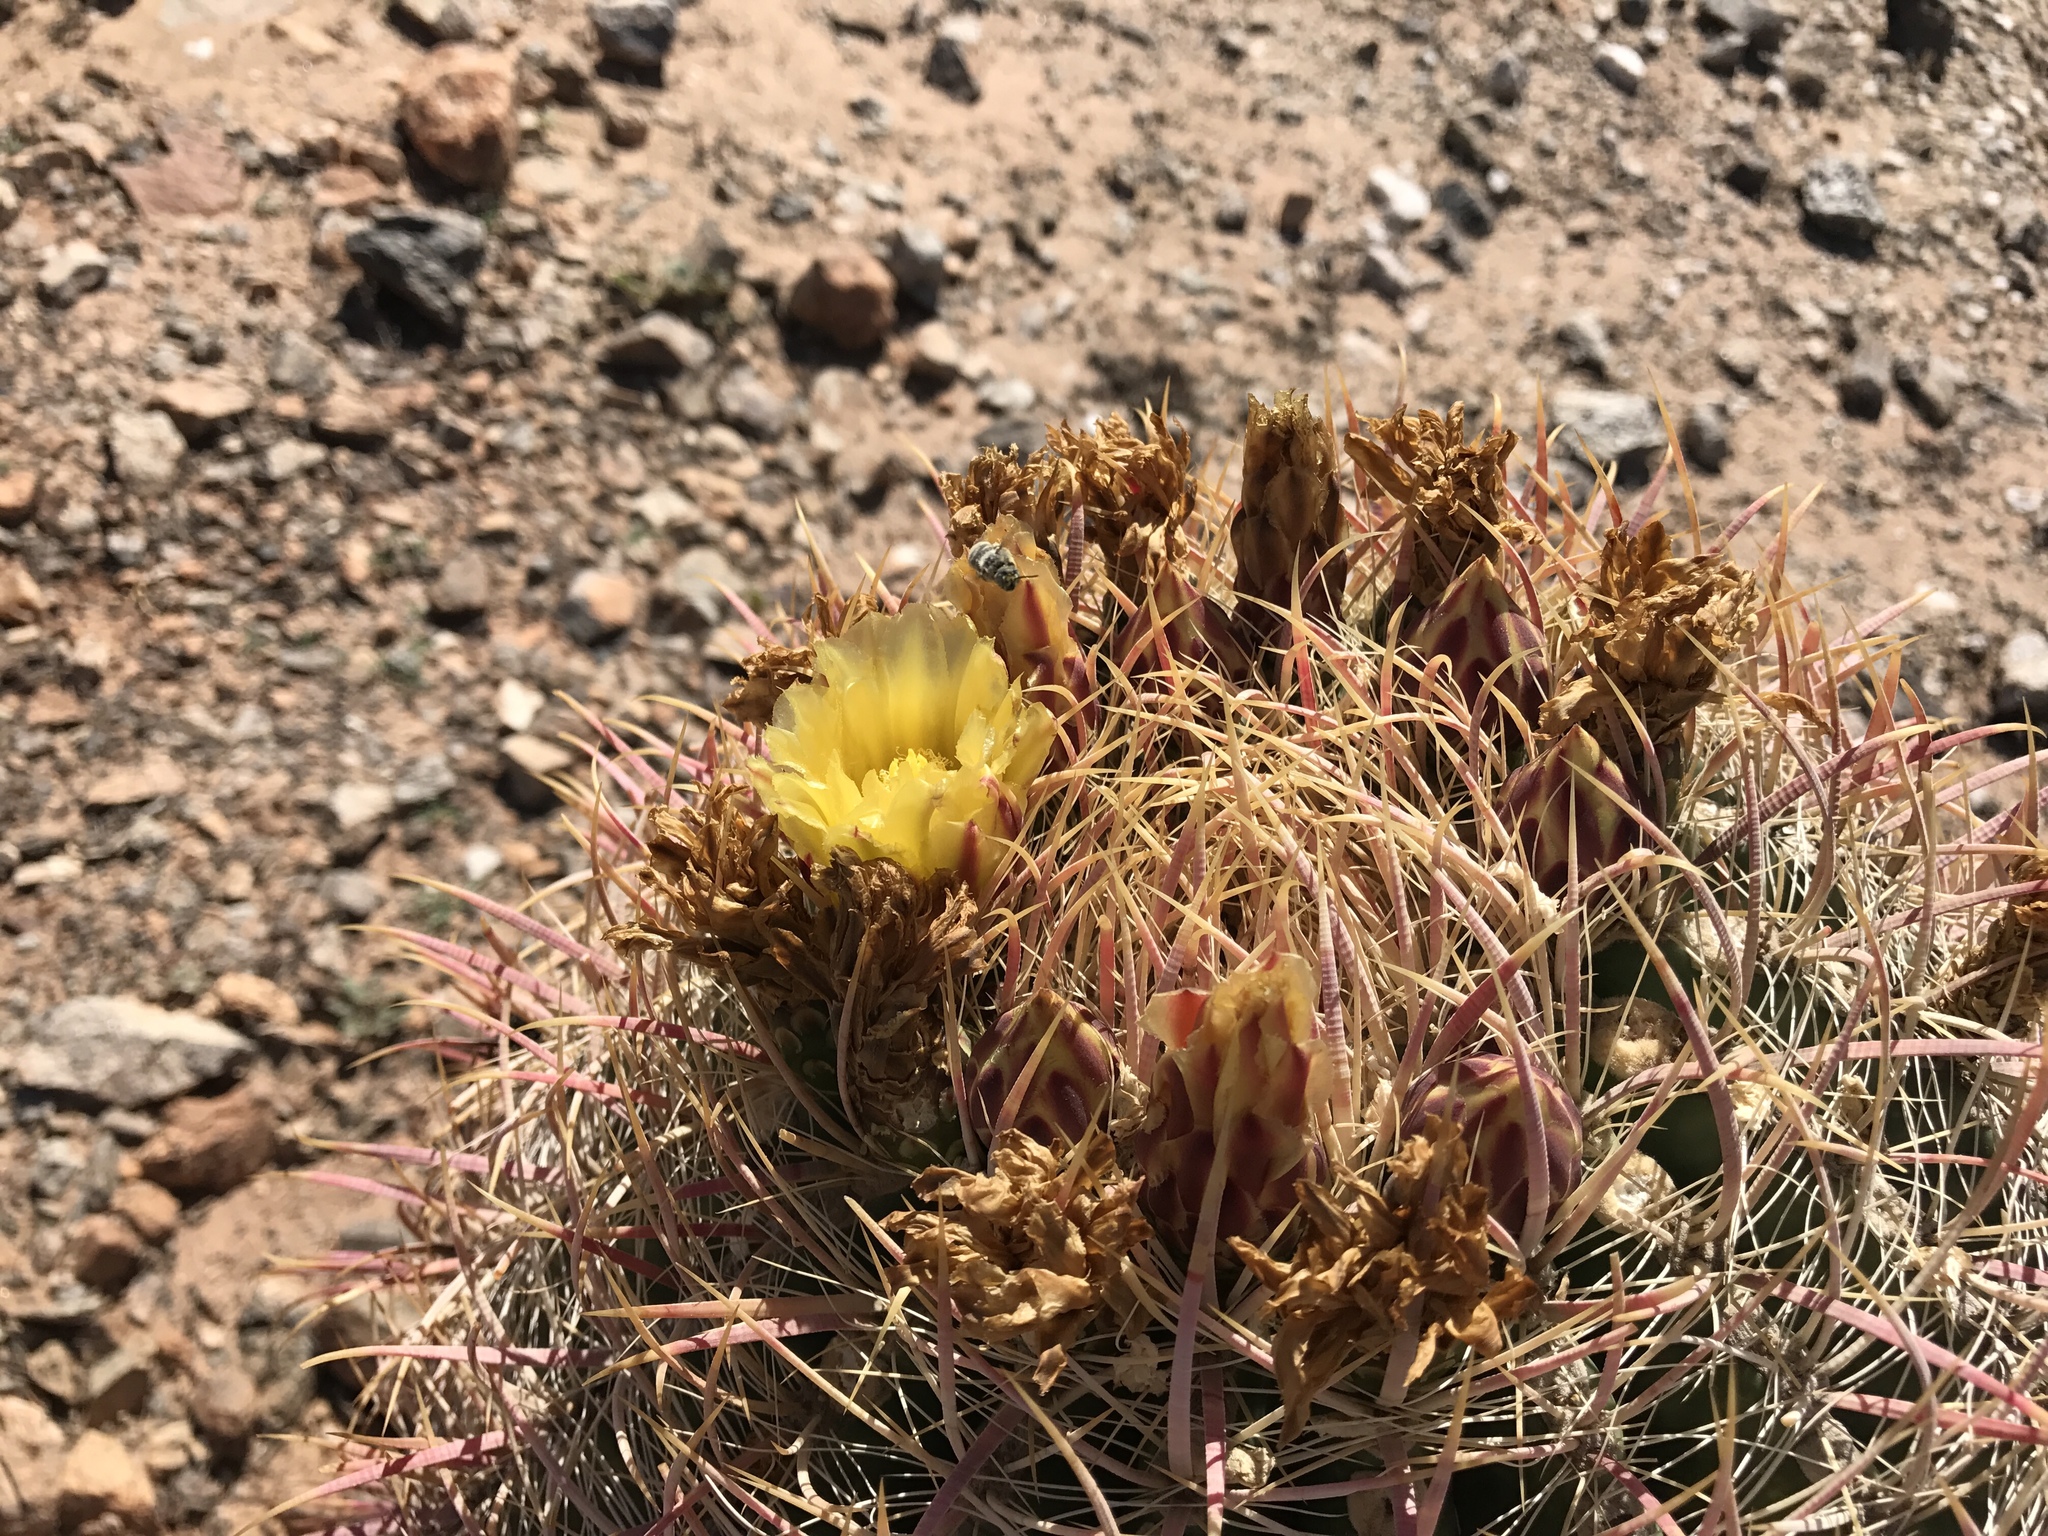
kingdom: Plantae
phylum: Tracheophyta
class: Magnoliopsida
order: Caryophyllales
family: Cactaceae
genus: Ferocactus
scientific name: Ferocactus cylindraceus
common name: California barrel cactus
